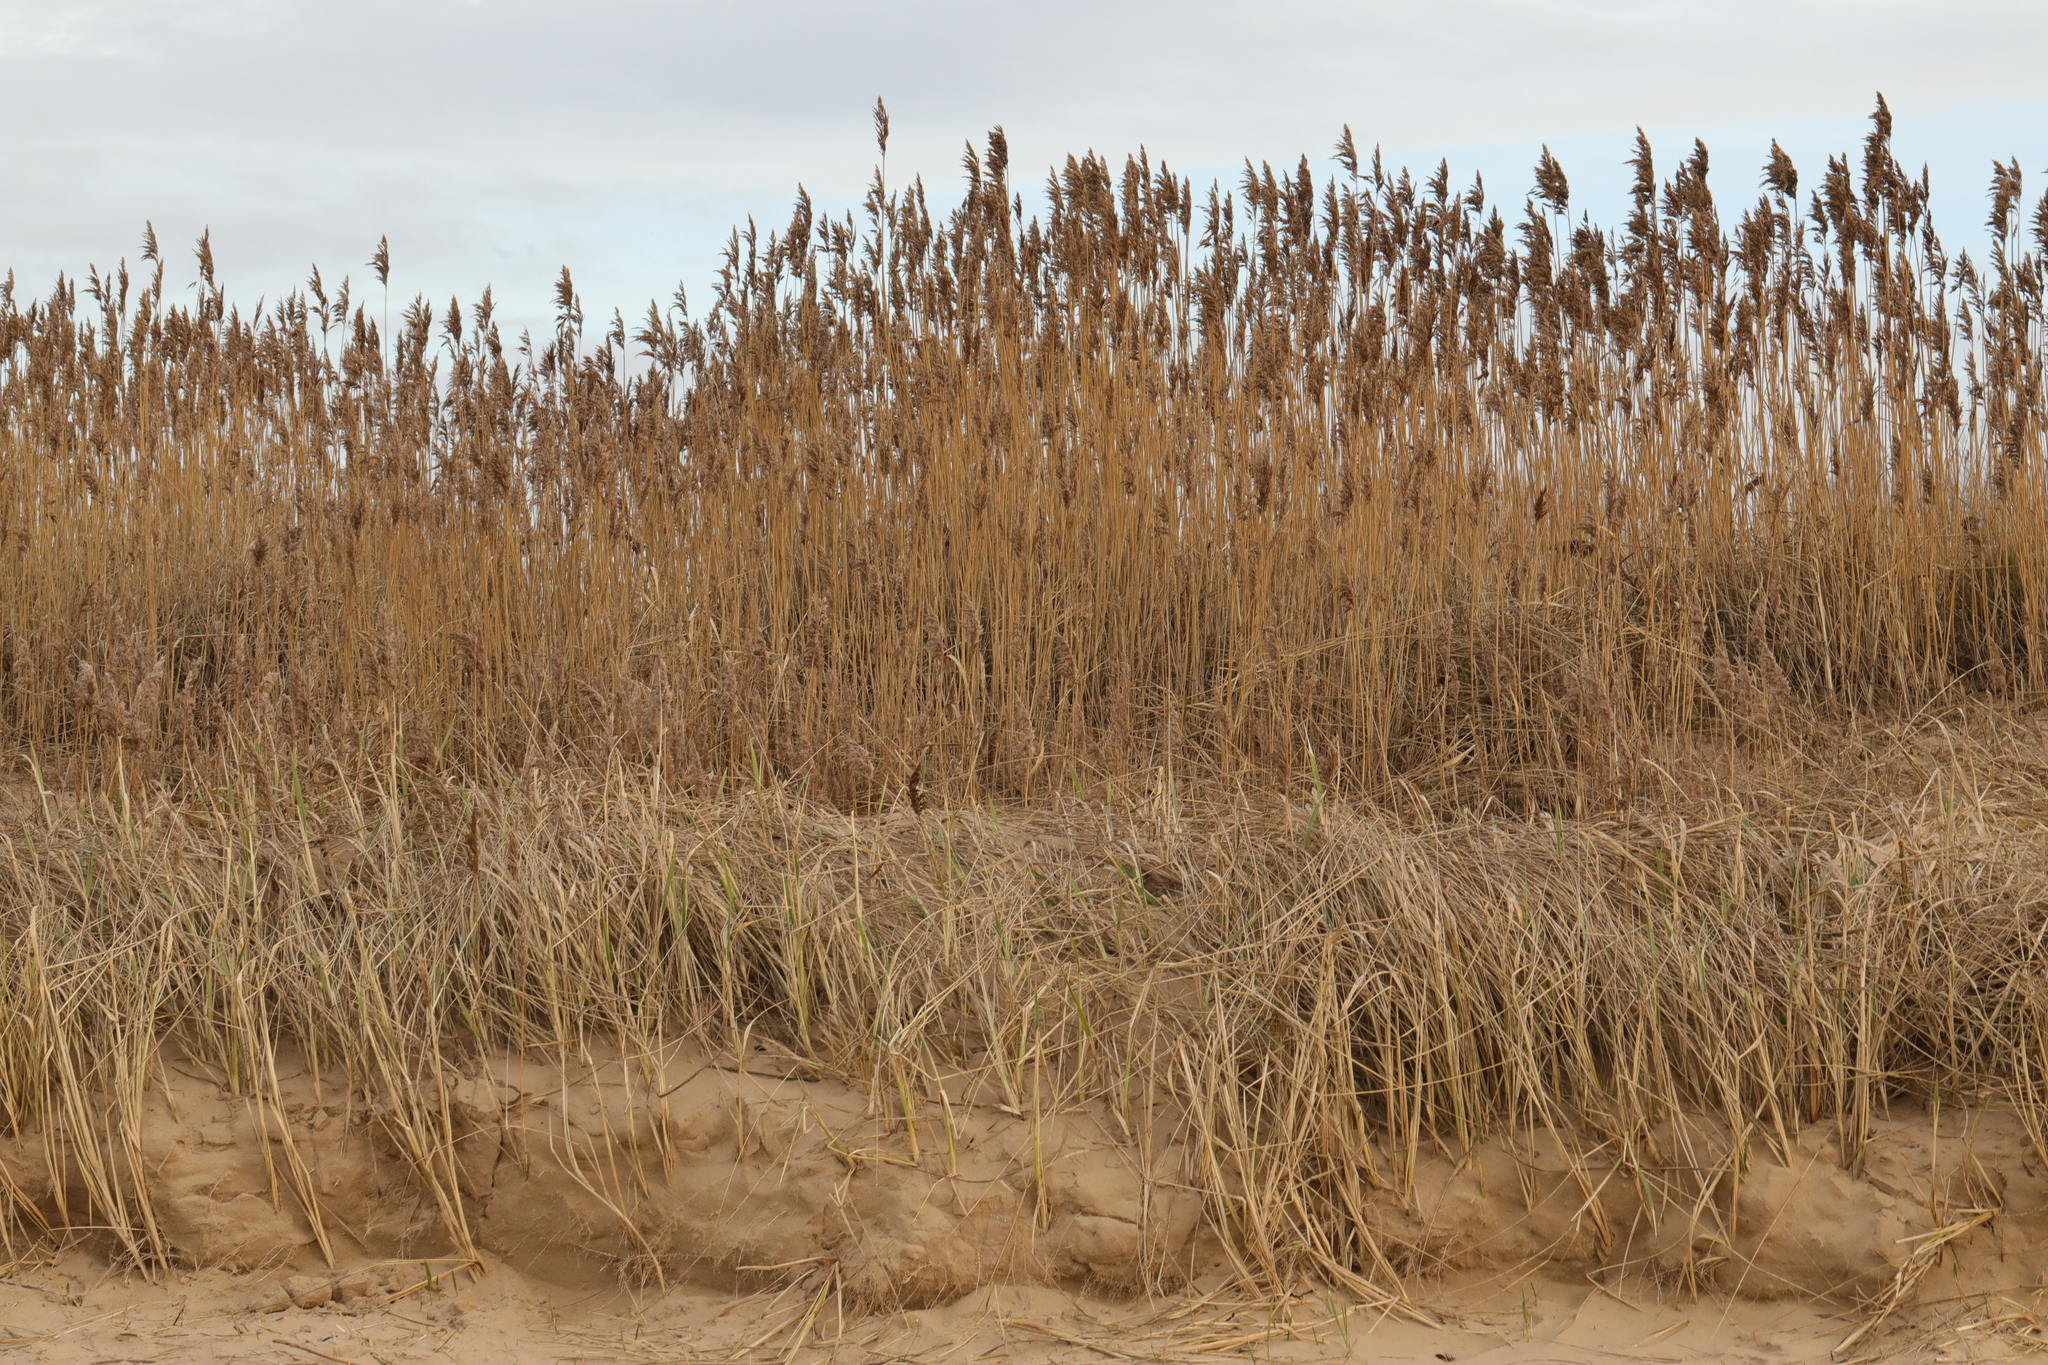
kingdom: Plantae
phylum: Tracheophyta
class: Liliopsida
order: Poales
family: Poaceae
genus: Phragmites
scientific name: Phragmites australis
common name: Common reed
